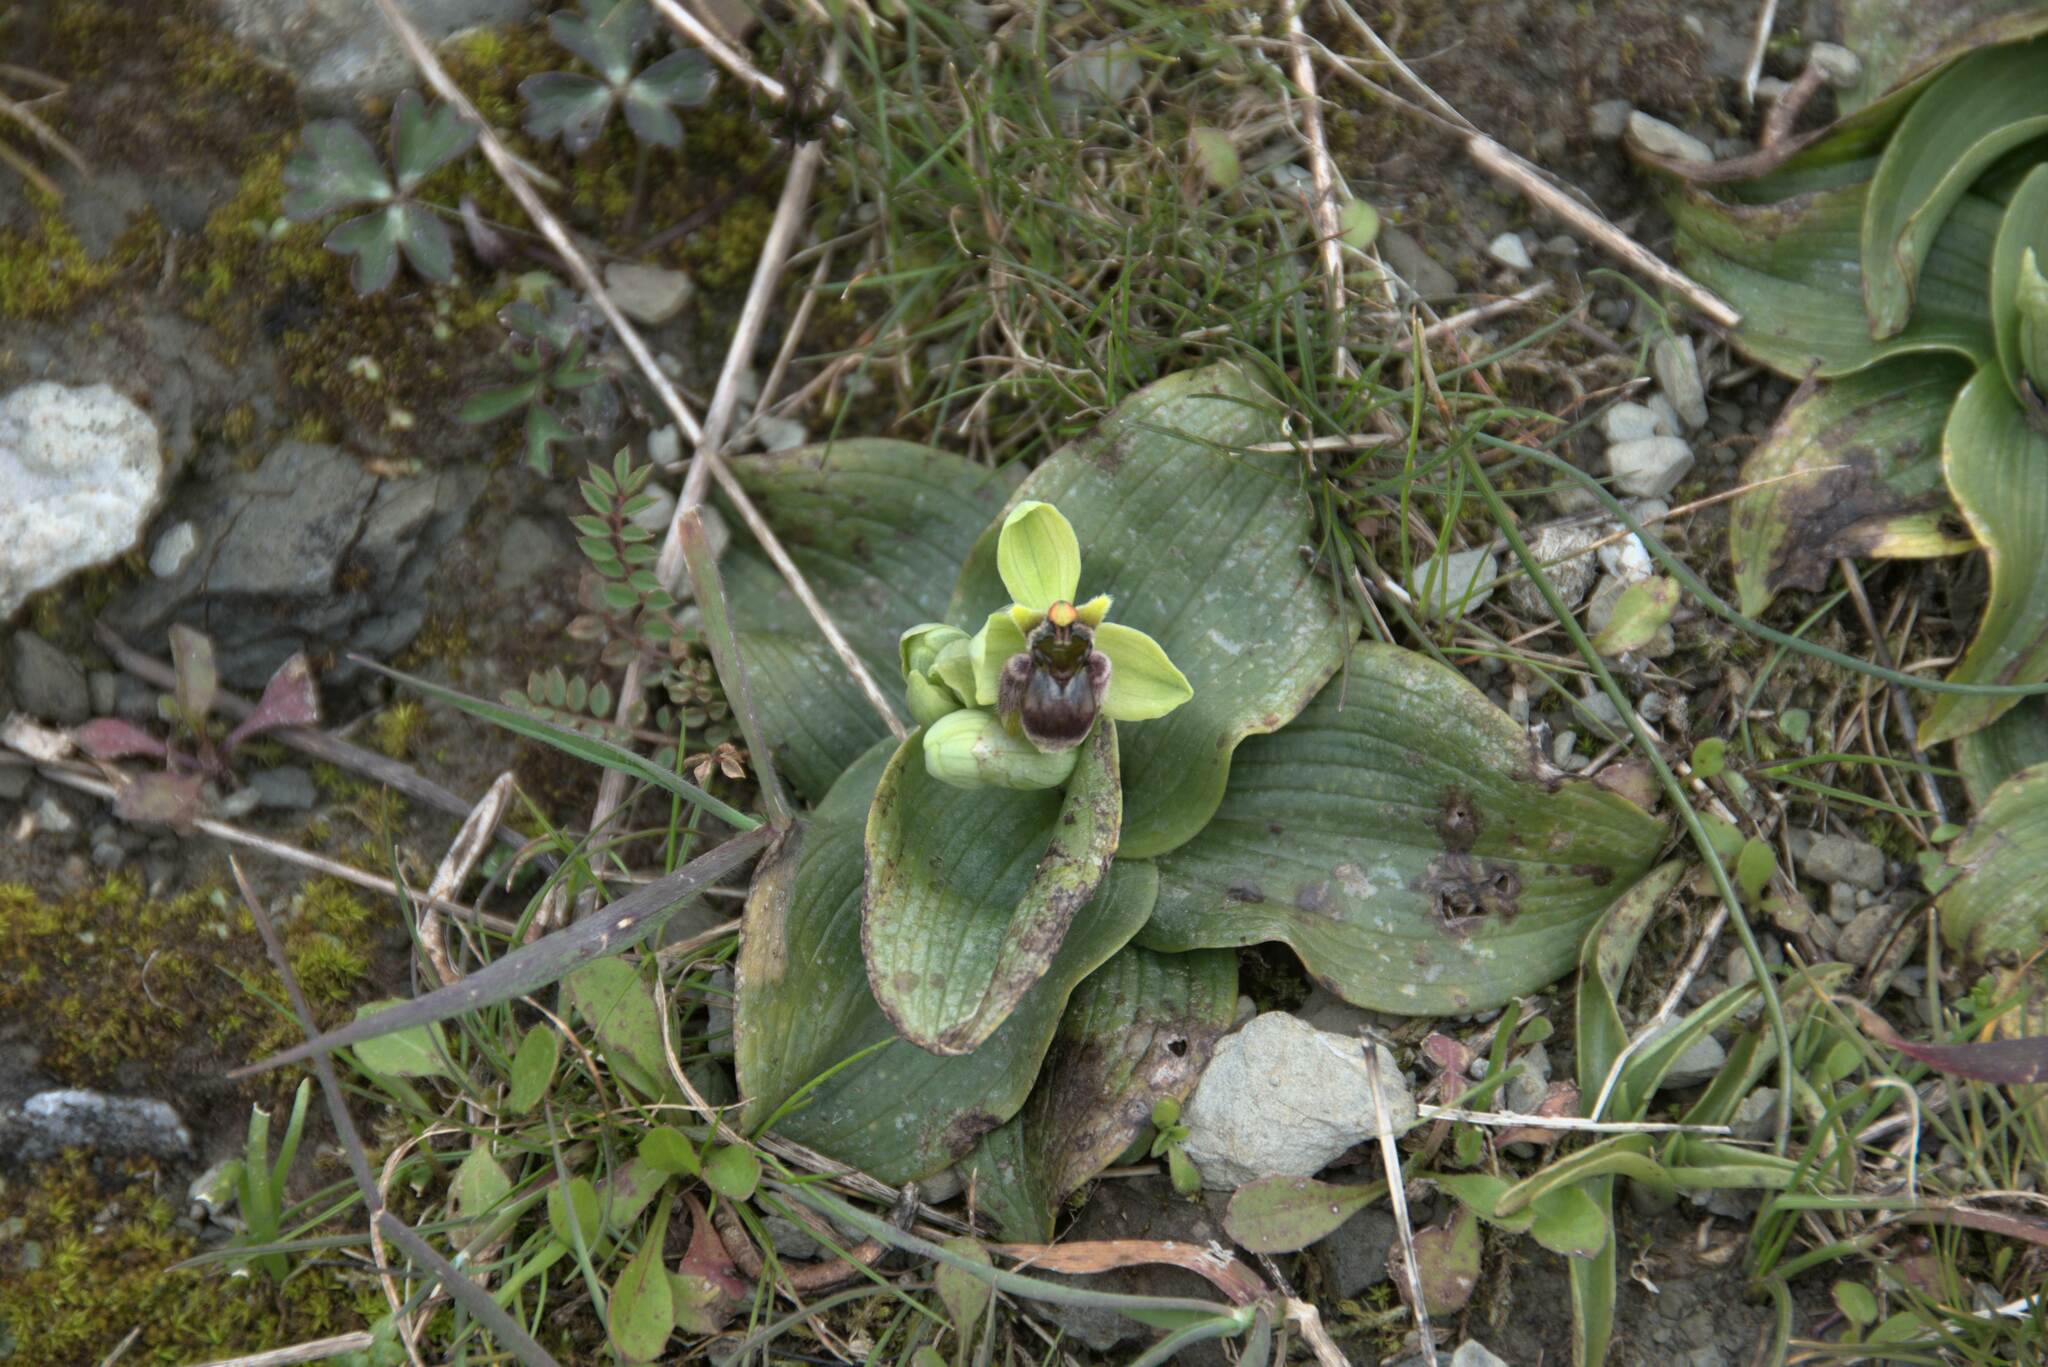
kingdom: Plantae
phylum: Tracheophyta
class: Liliopsida
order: Asparagales
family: Orchidaceae
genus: Ophrys
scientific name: Ophrys bombyliflora
